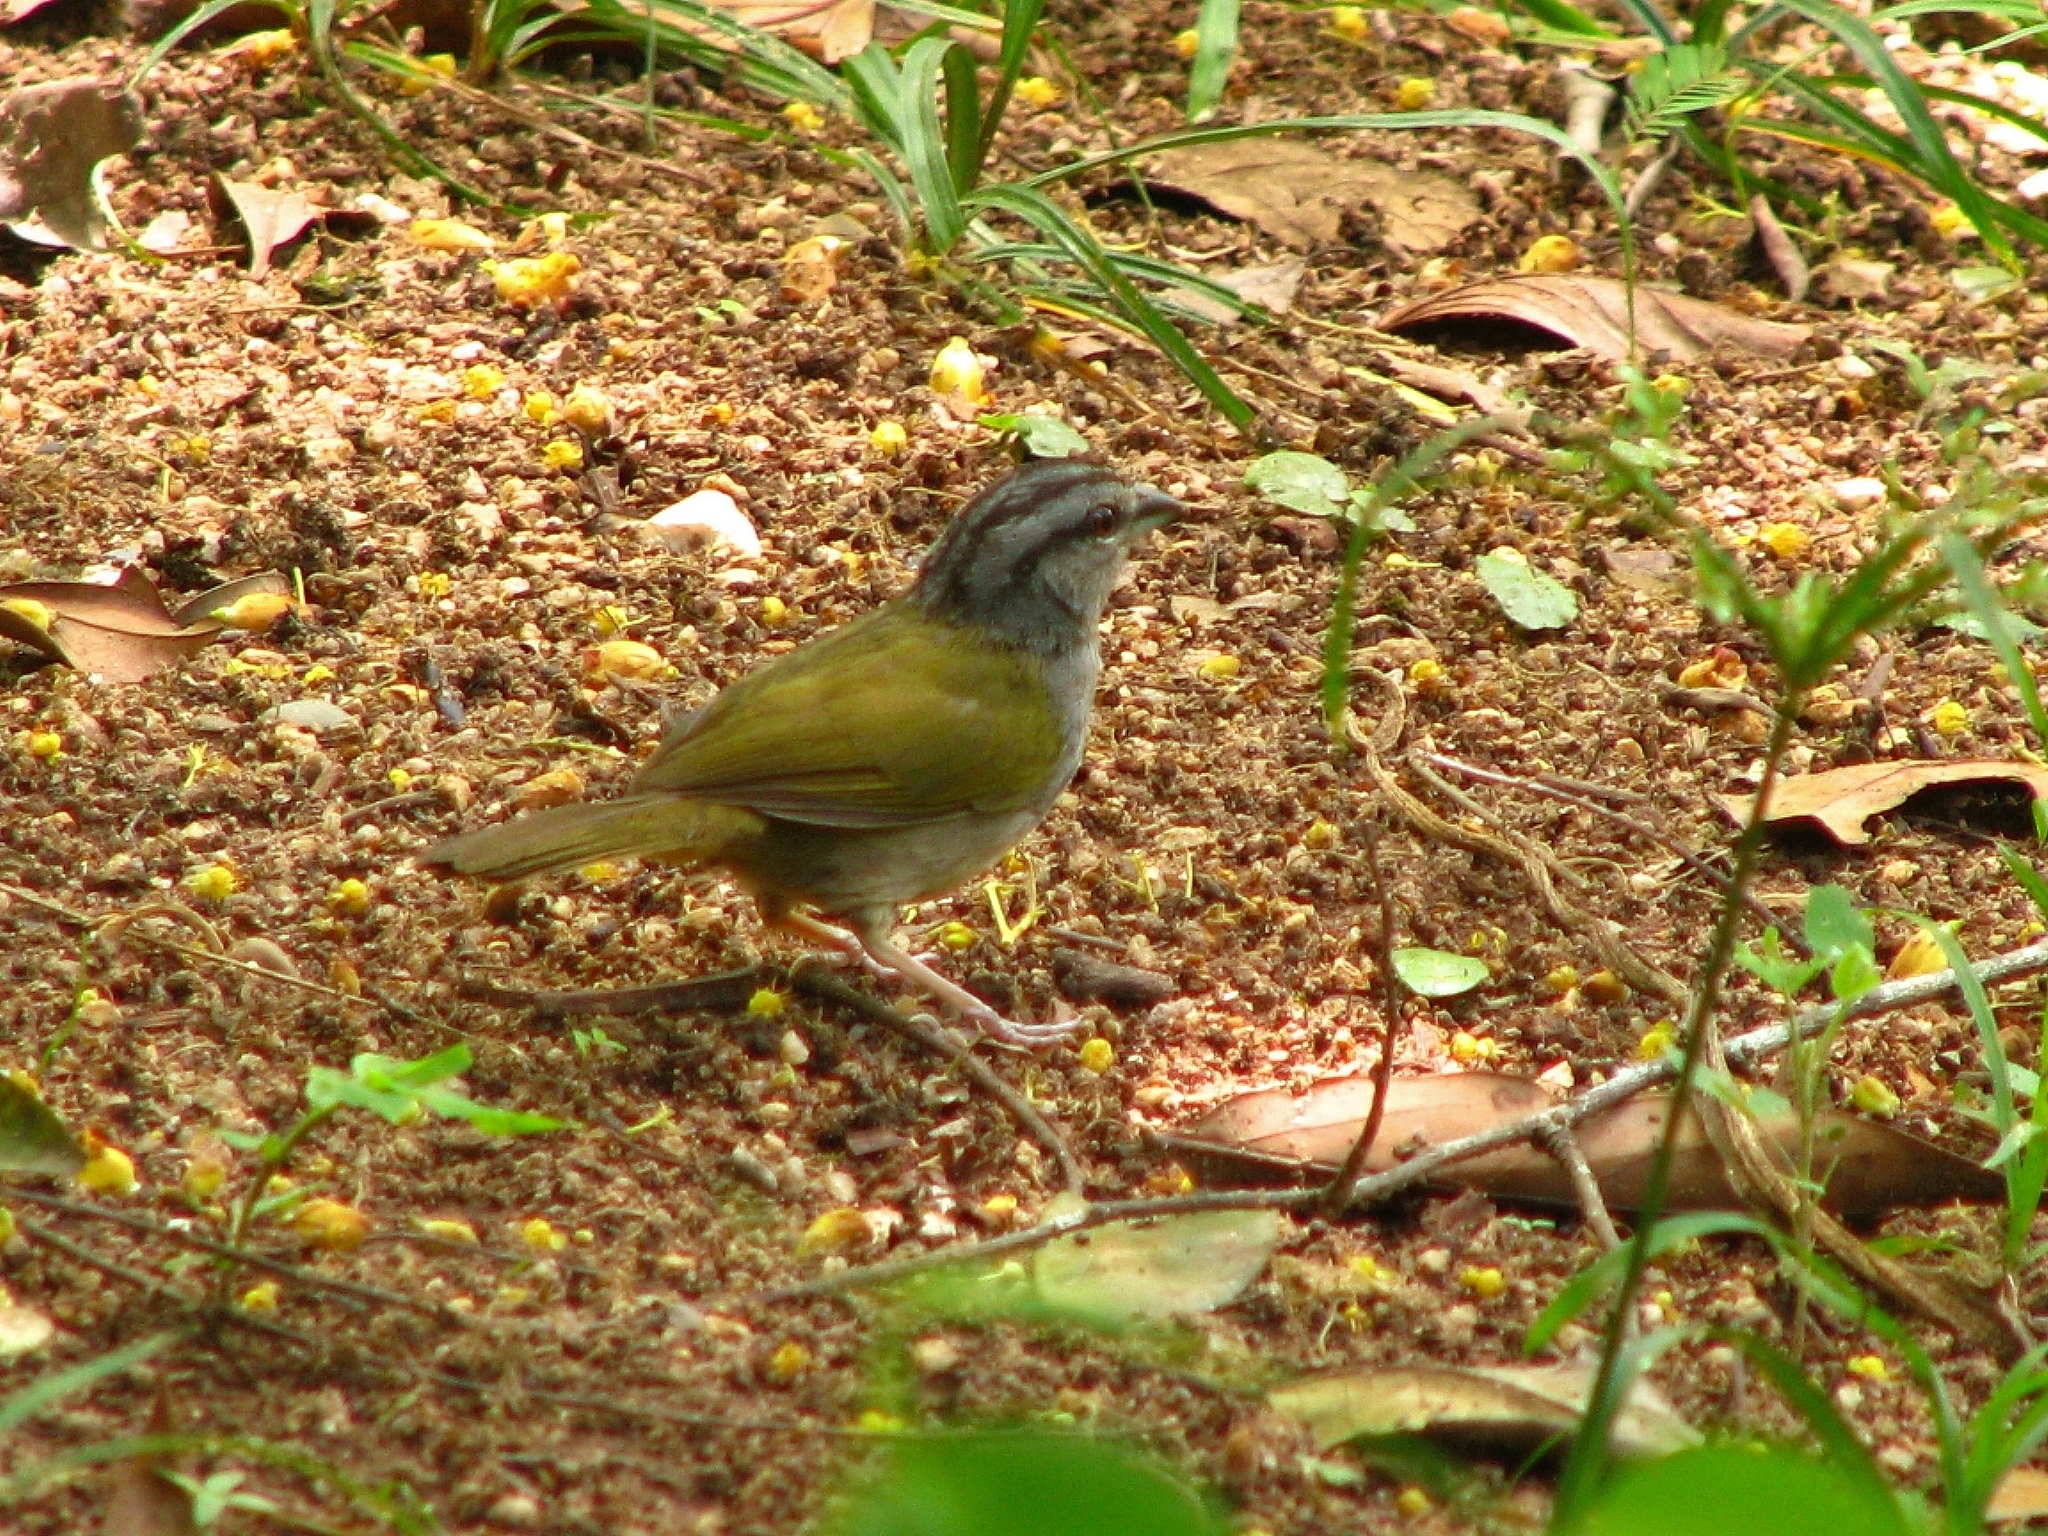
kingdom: Animalia
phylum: Chordata
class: Aves
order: Passeriformes
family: Passerellidae
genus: Arremonops
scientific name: Arremonops chloronotus
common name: Green-backed sparrow
